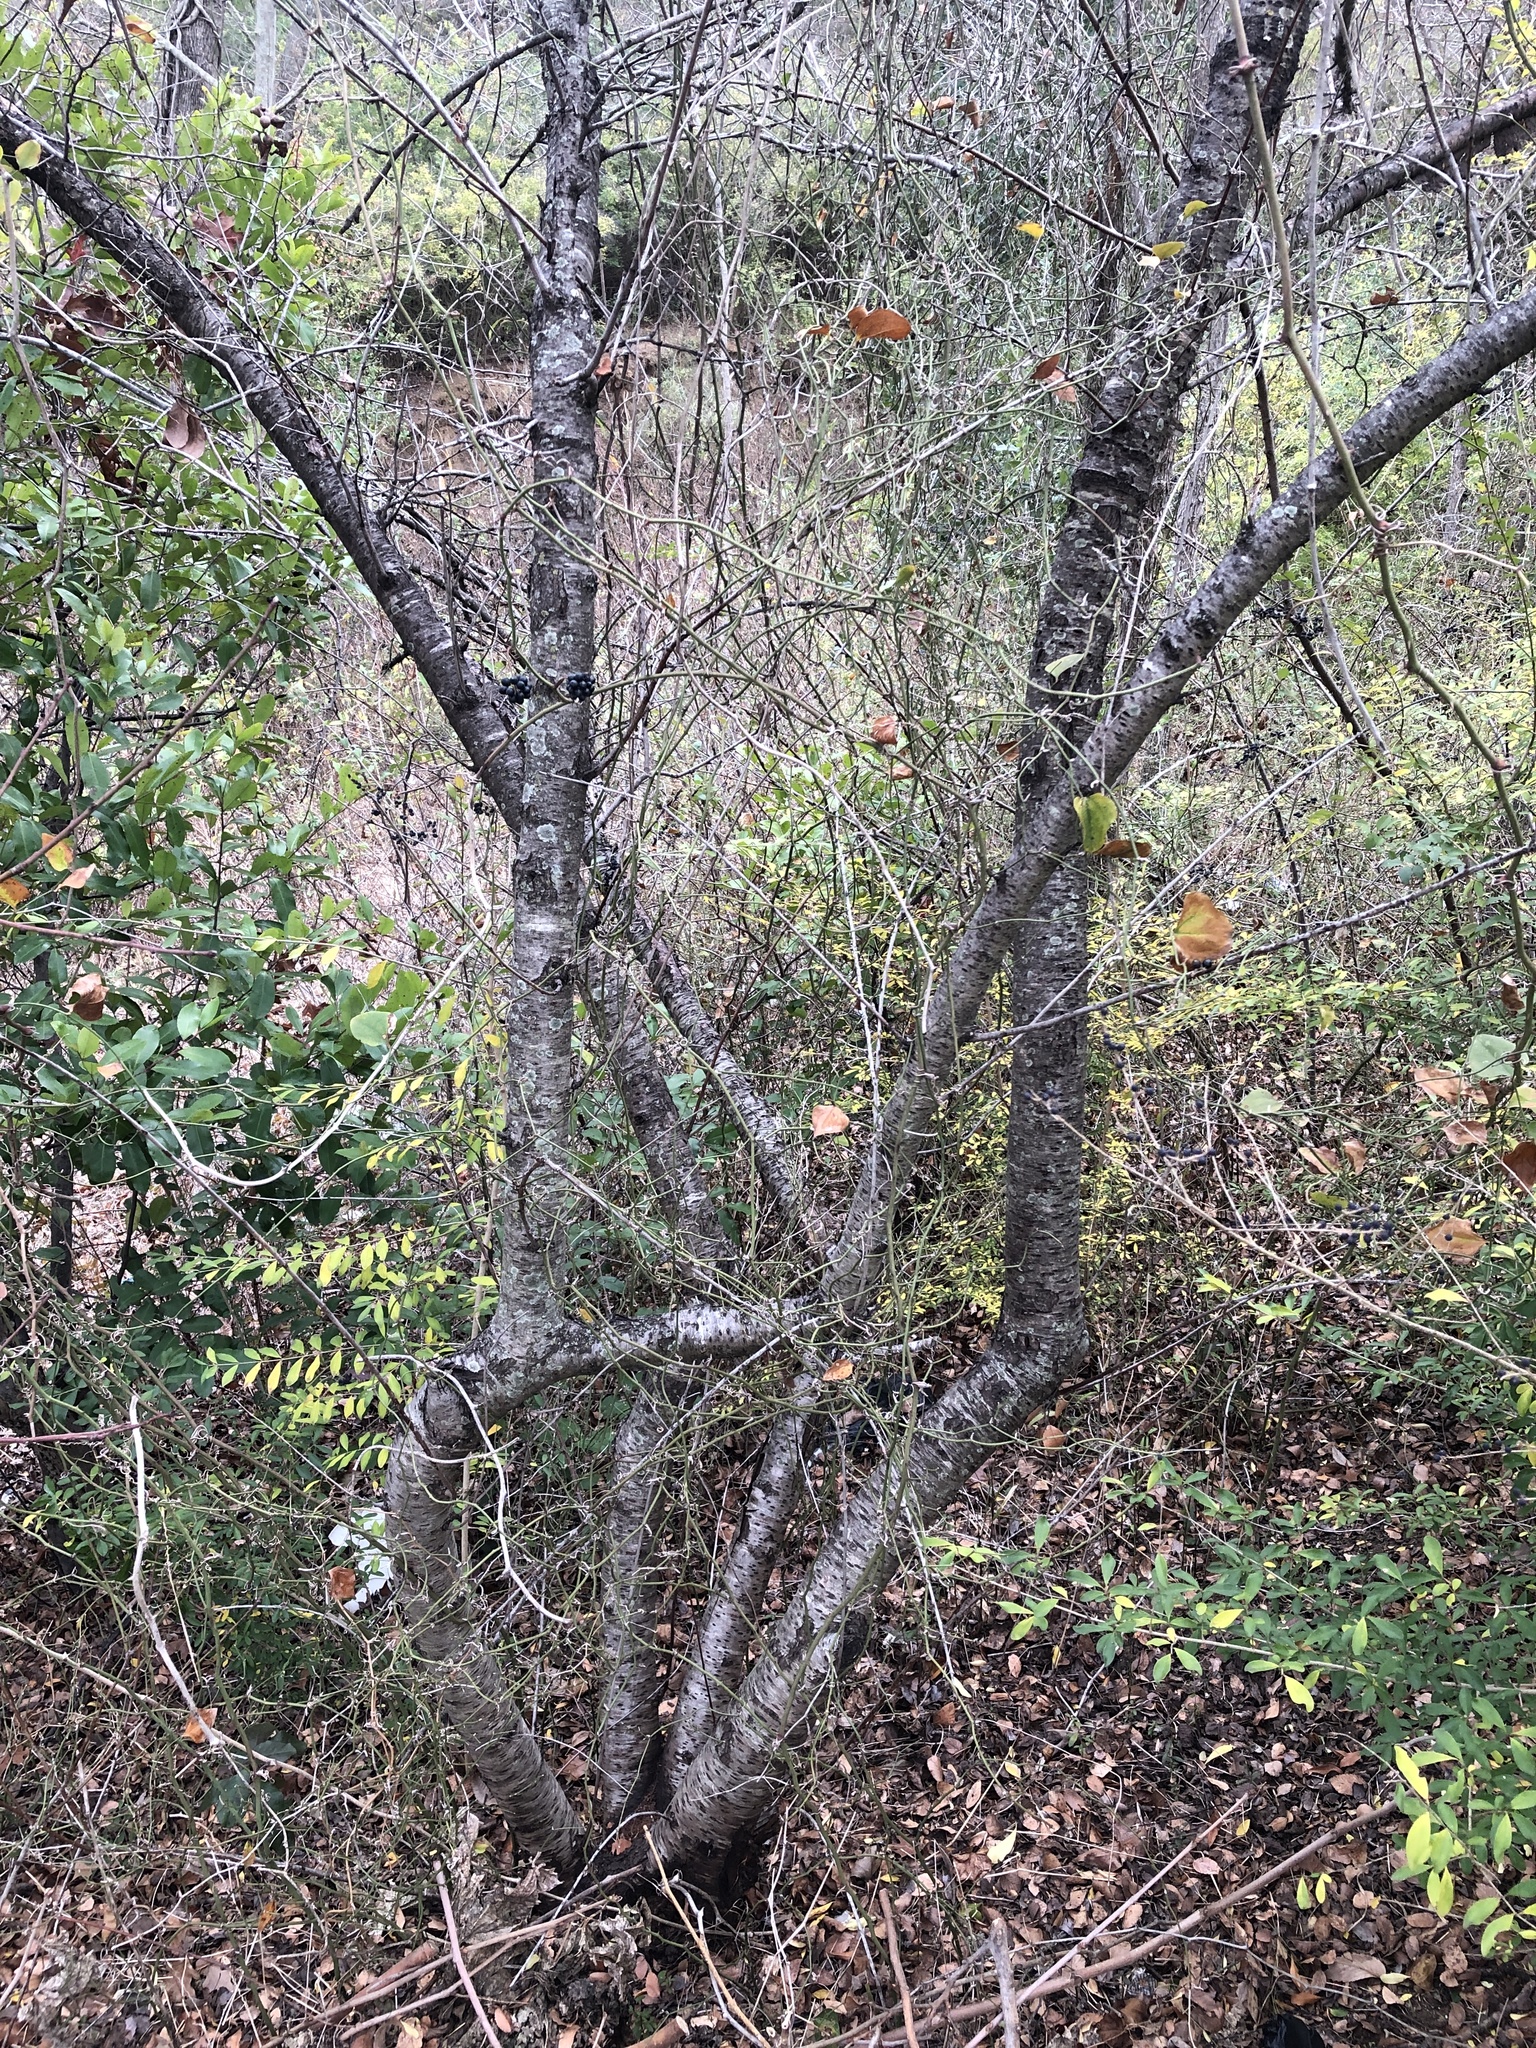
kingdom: Plantae
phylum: Tracheophyta
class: Liliopsida
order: Liliales
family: Smilacaceae
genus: Smilax
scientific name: Smilax bona-nox
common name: Catbrier
